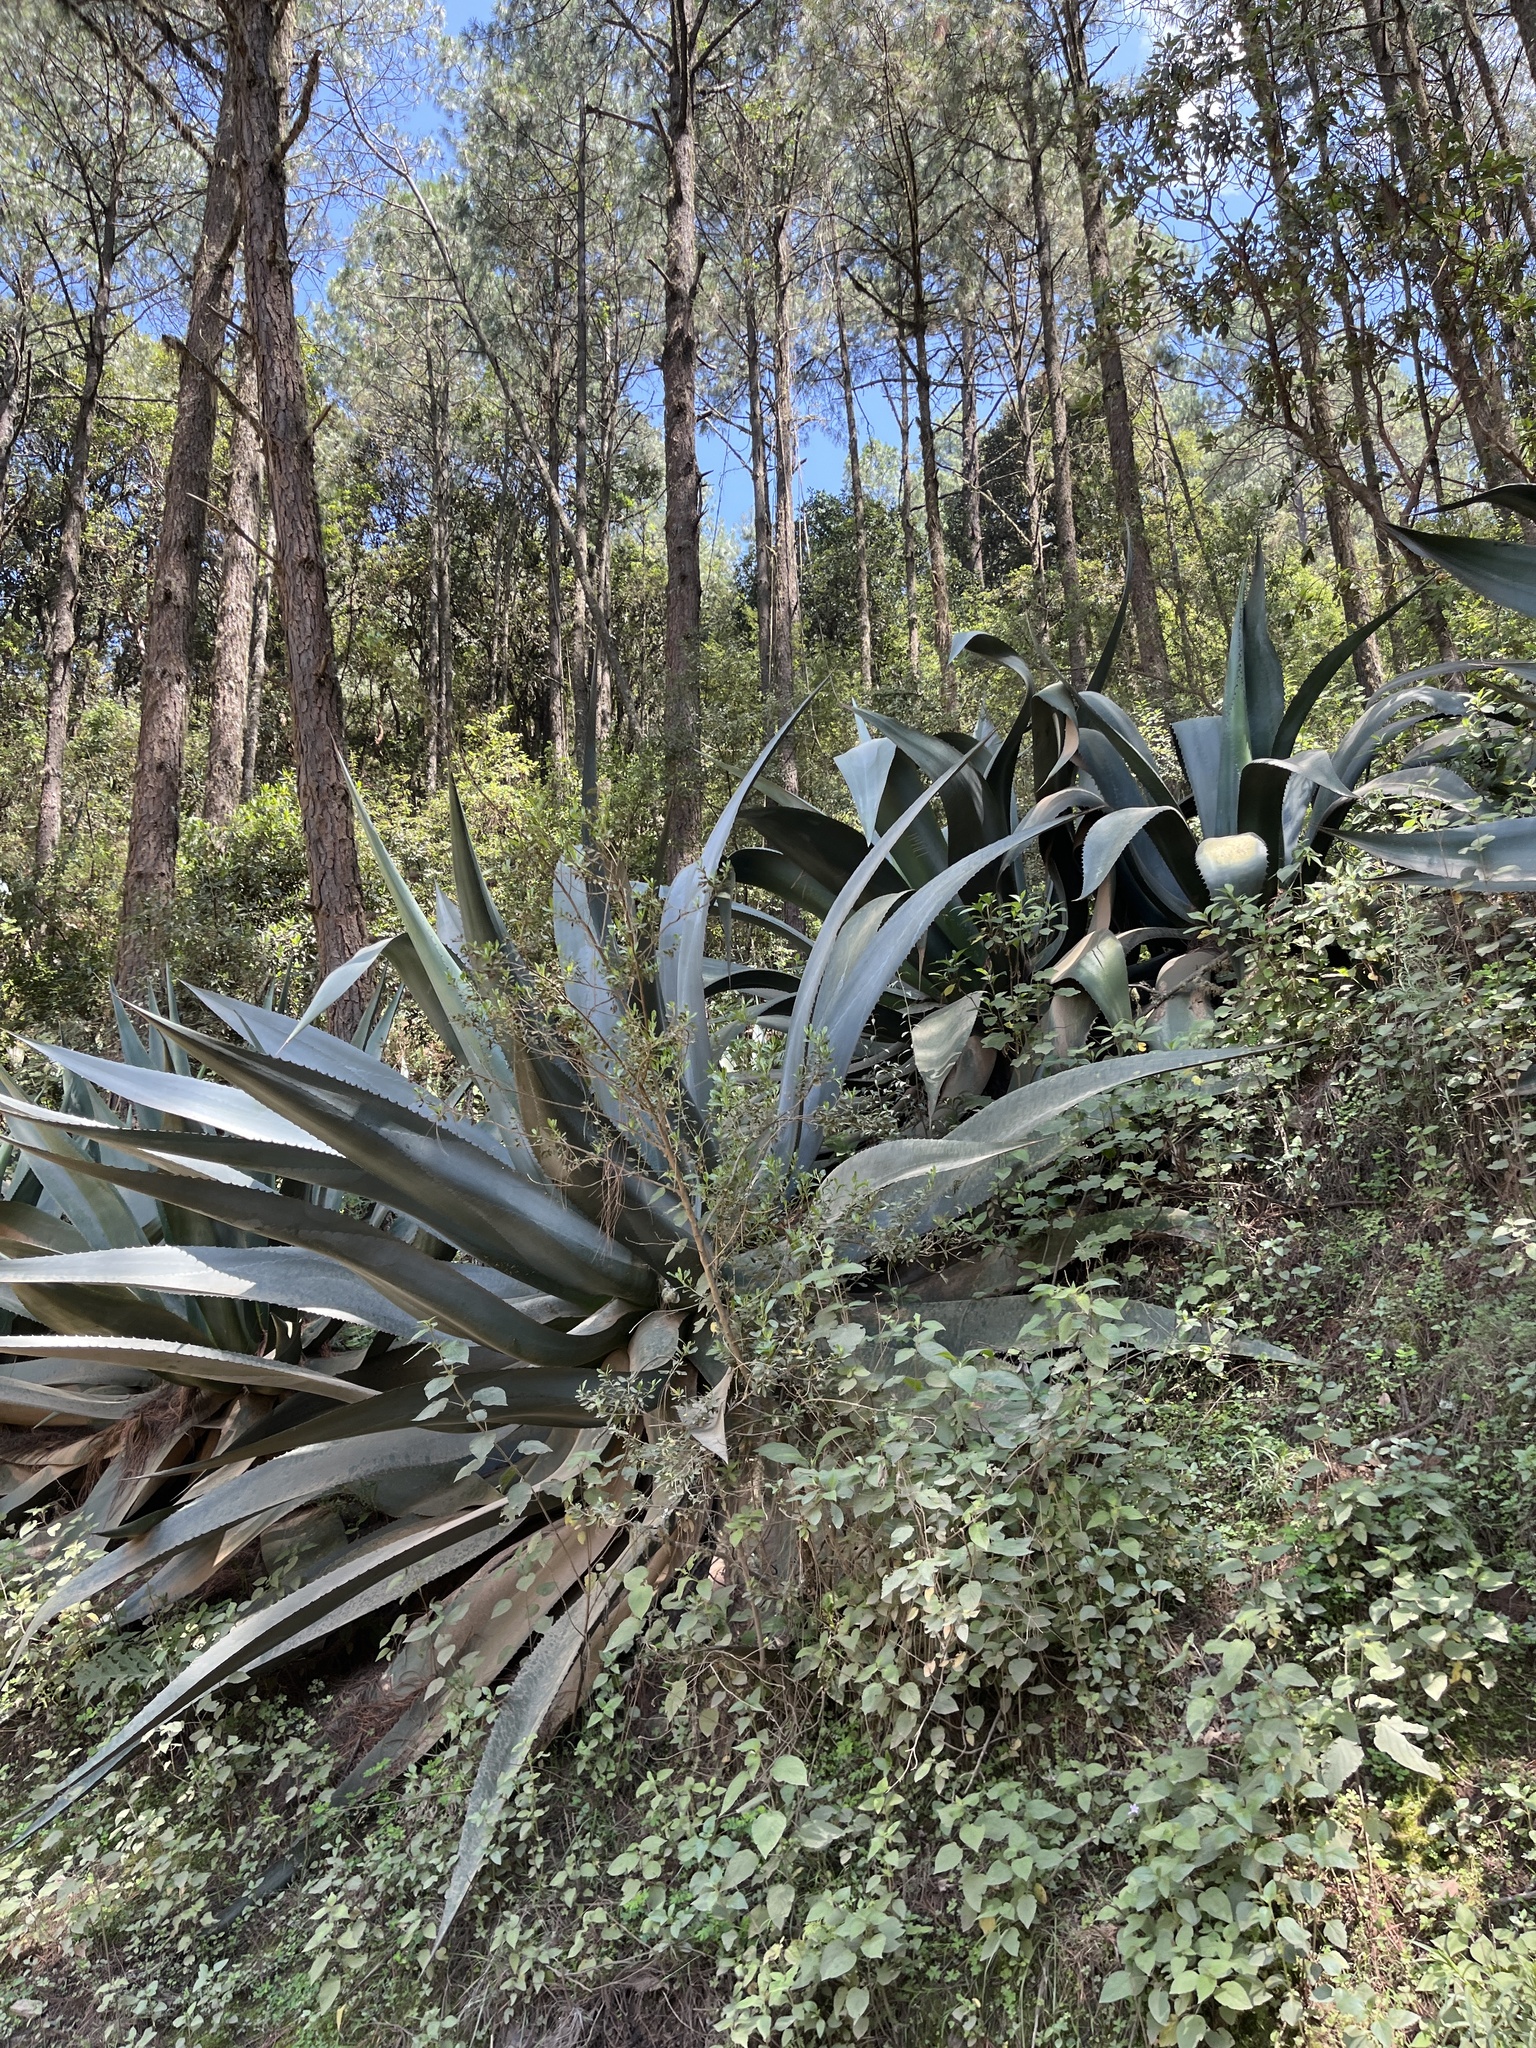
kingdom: Plantae
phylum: Tracheophyta
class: Liliopsida
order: Asparagales
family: Asparagaceae
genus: Agave
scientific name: Agave atrovirens
